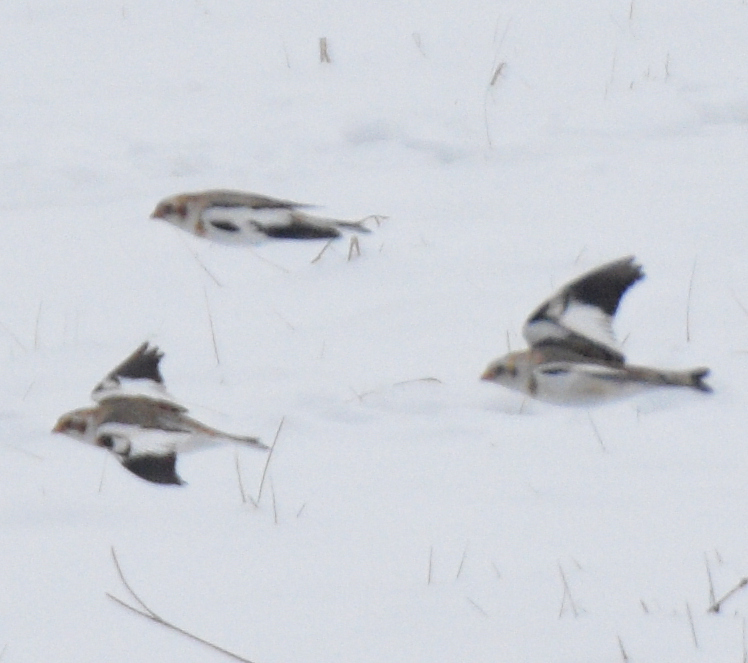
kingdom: Animalia
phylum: Chordata
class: Aves
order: Passeriformes
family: Calcariidae
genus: Plectrophenax
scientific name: Plectrophenax nivalis
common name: Snow bunting
